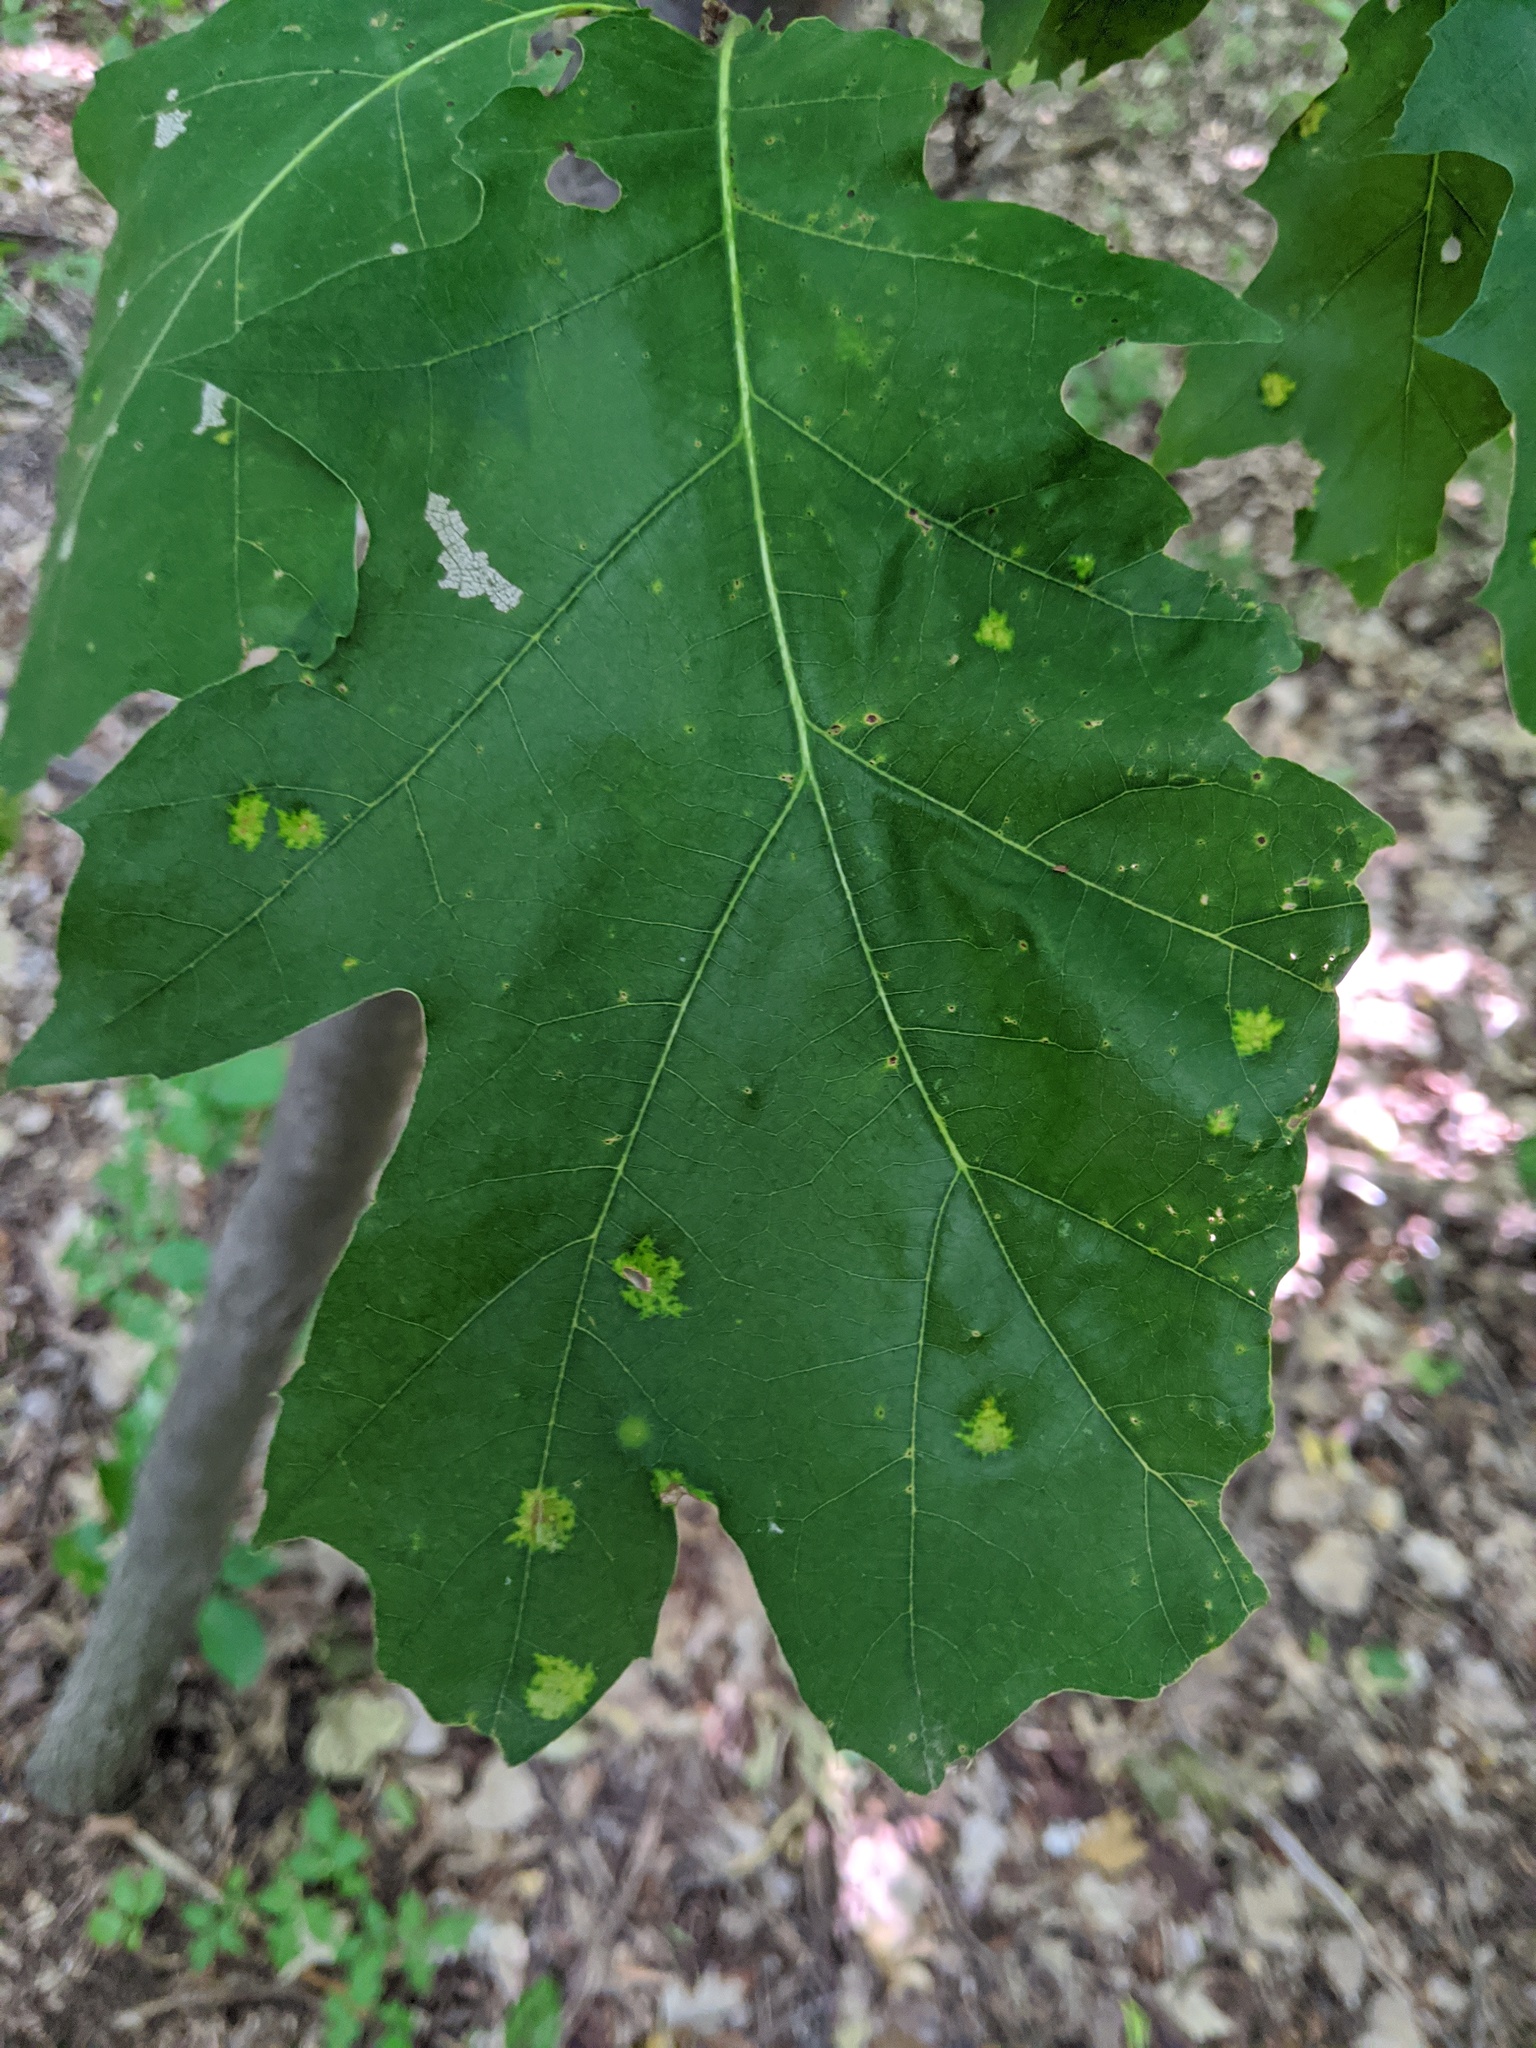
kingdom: Fungi
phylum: Ascomycota
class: Taphrinomycetes
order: Taphrinales
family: Taphrinaceae
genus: Taphrina
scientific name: Taphrina caerulescens
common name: Oak leaf blister
